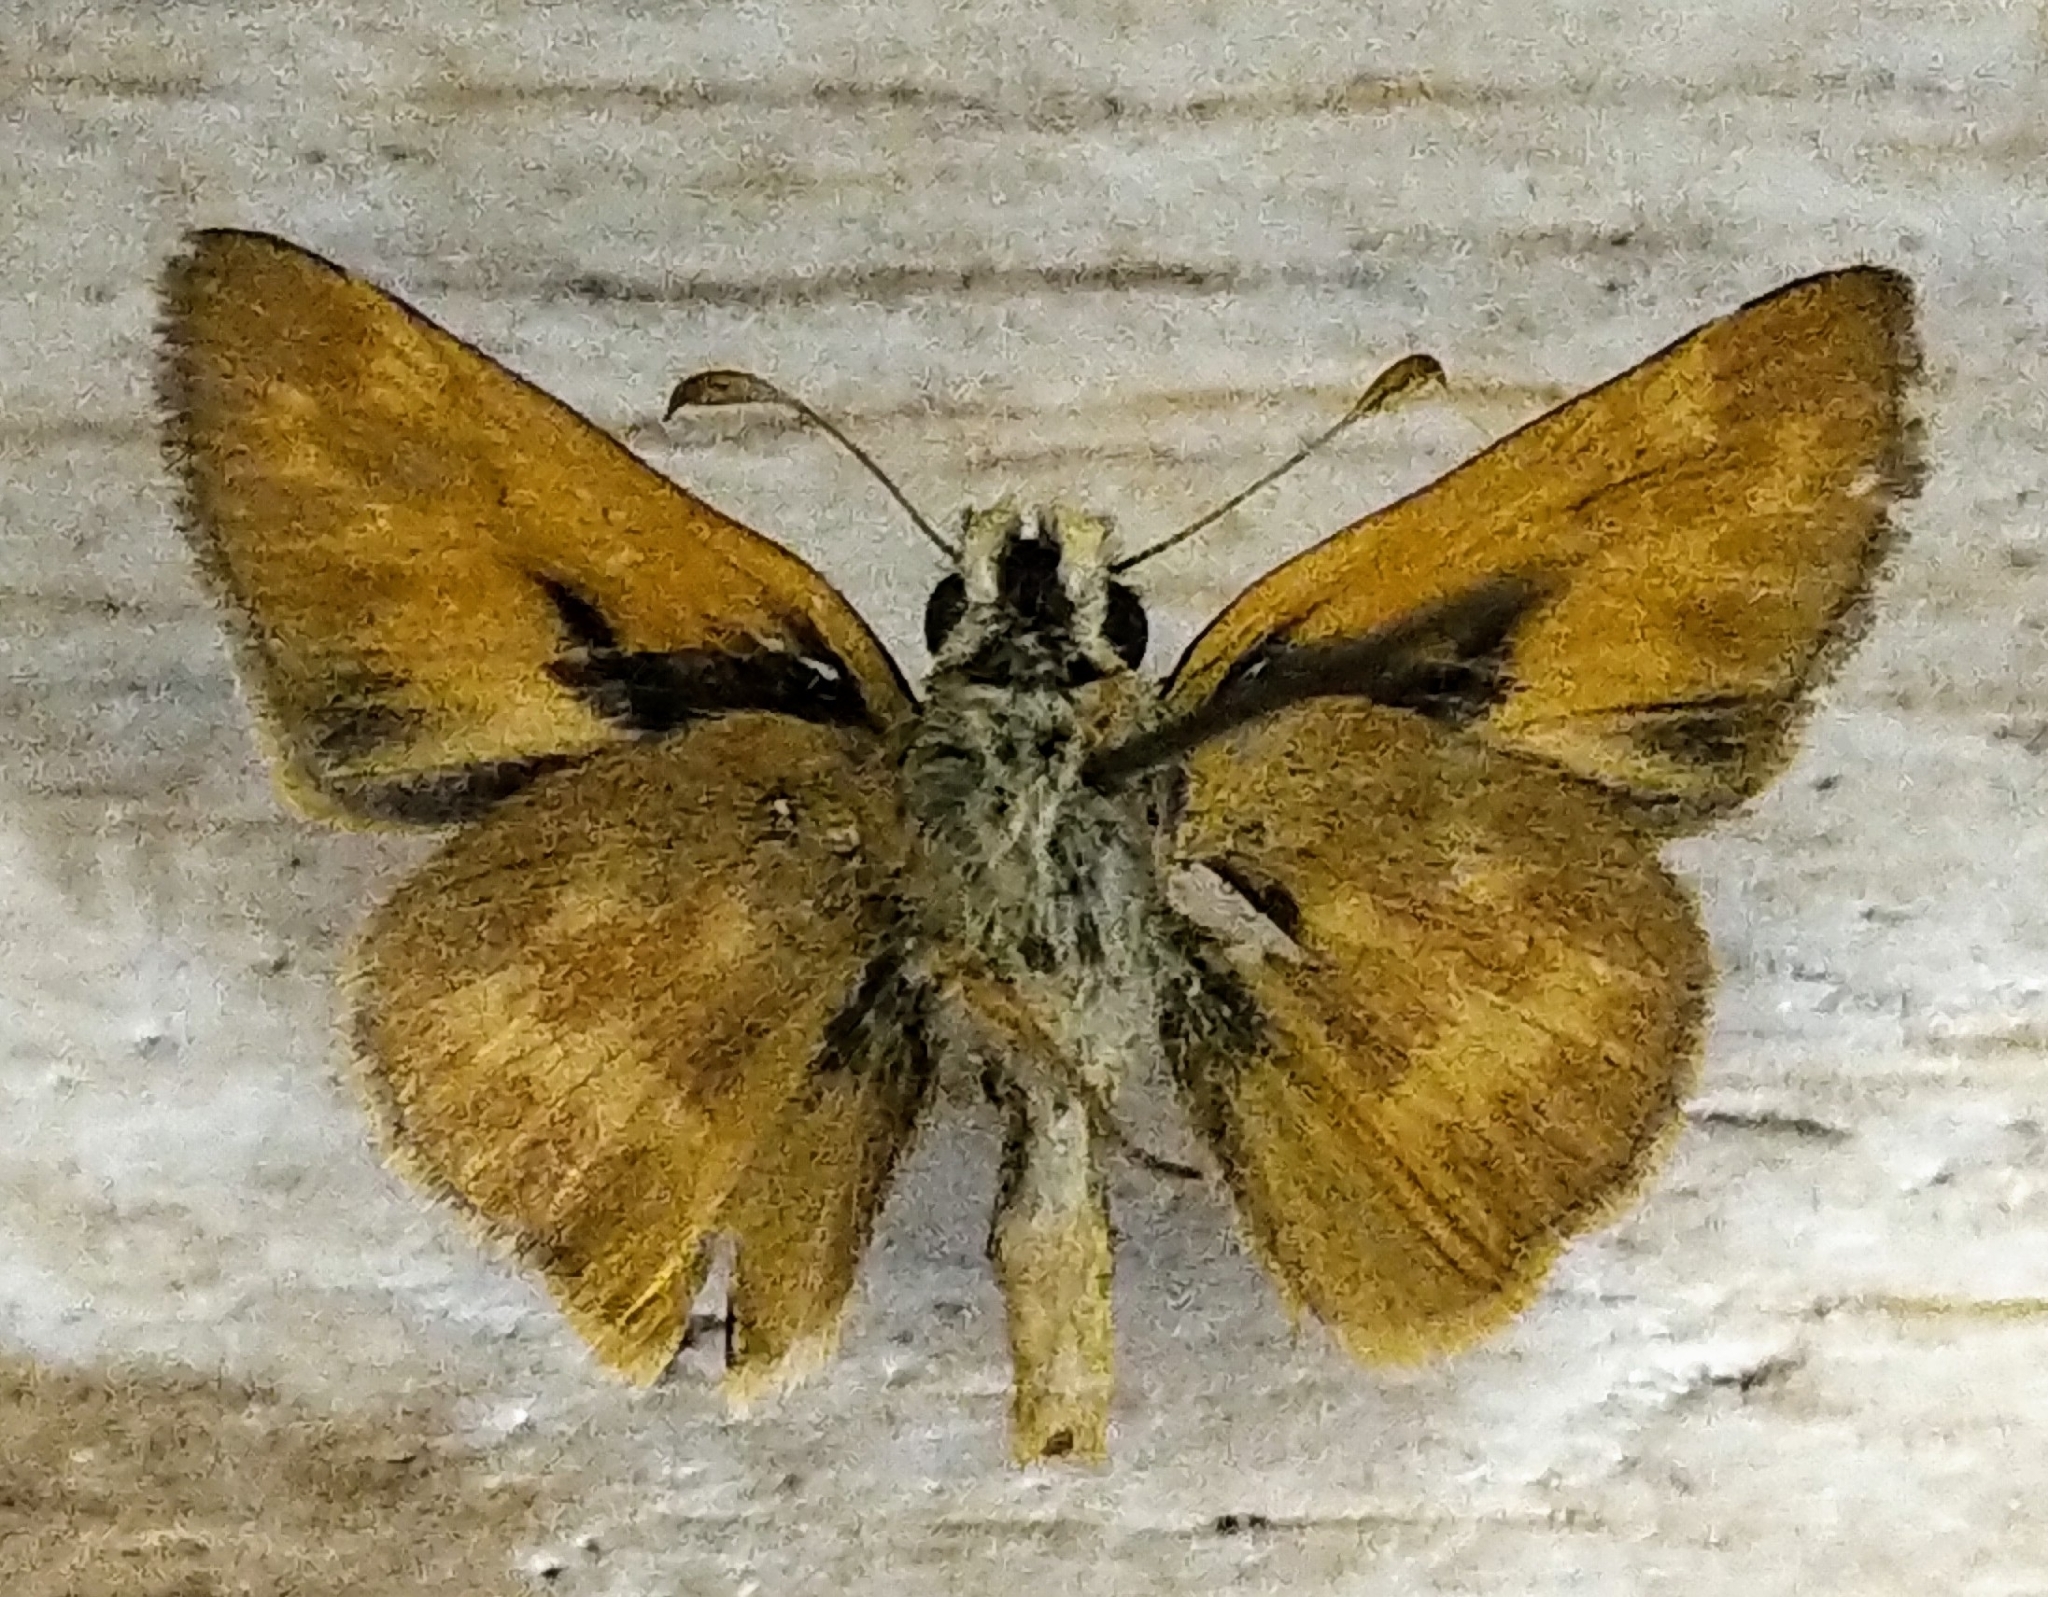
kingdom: Animalia
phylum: Arthropoda
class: Insecta
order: Lepidoptera
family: Hesperiidae
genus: Ochlodes
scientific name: Ochlodes sylvanoides
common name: Woodland skipper
